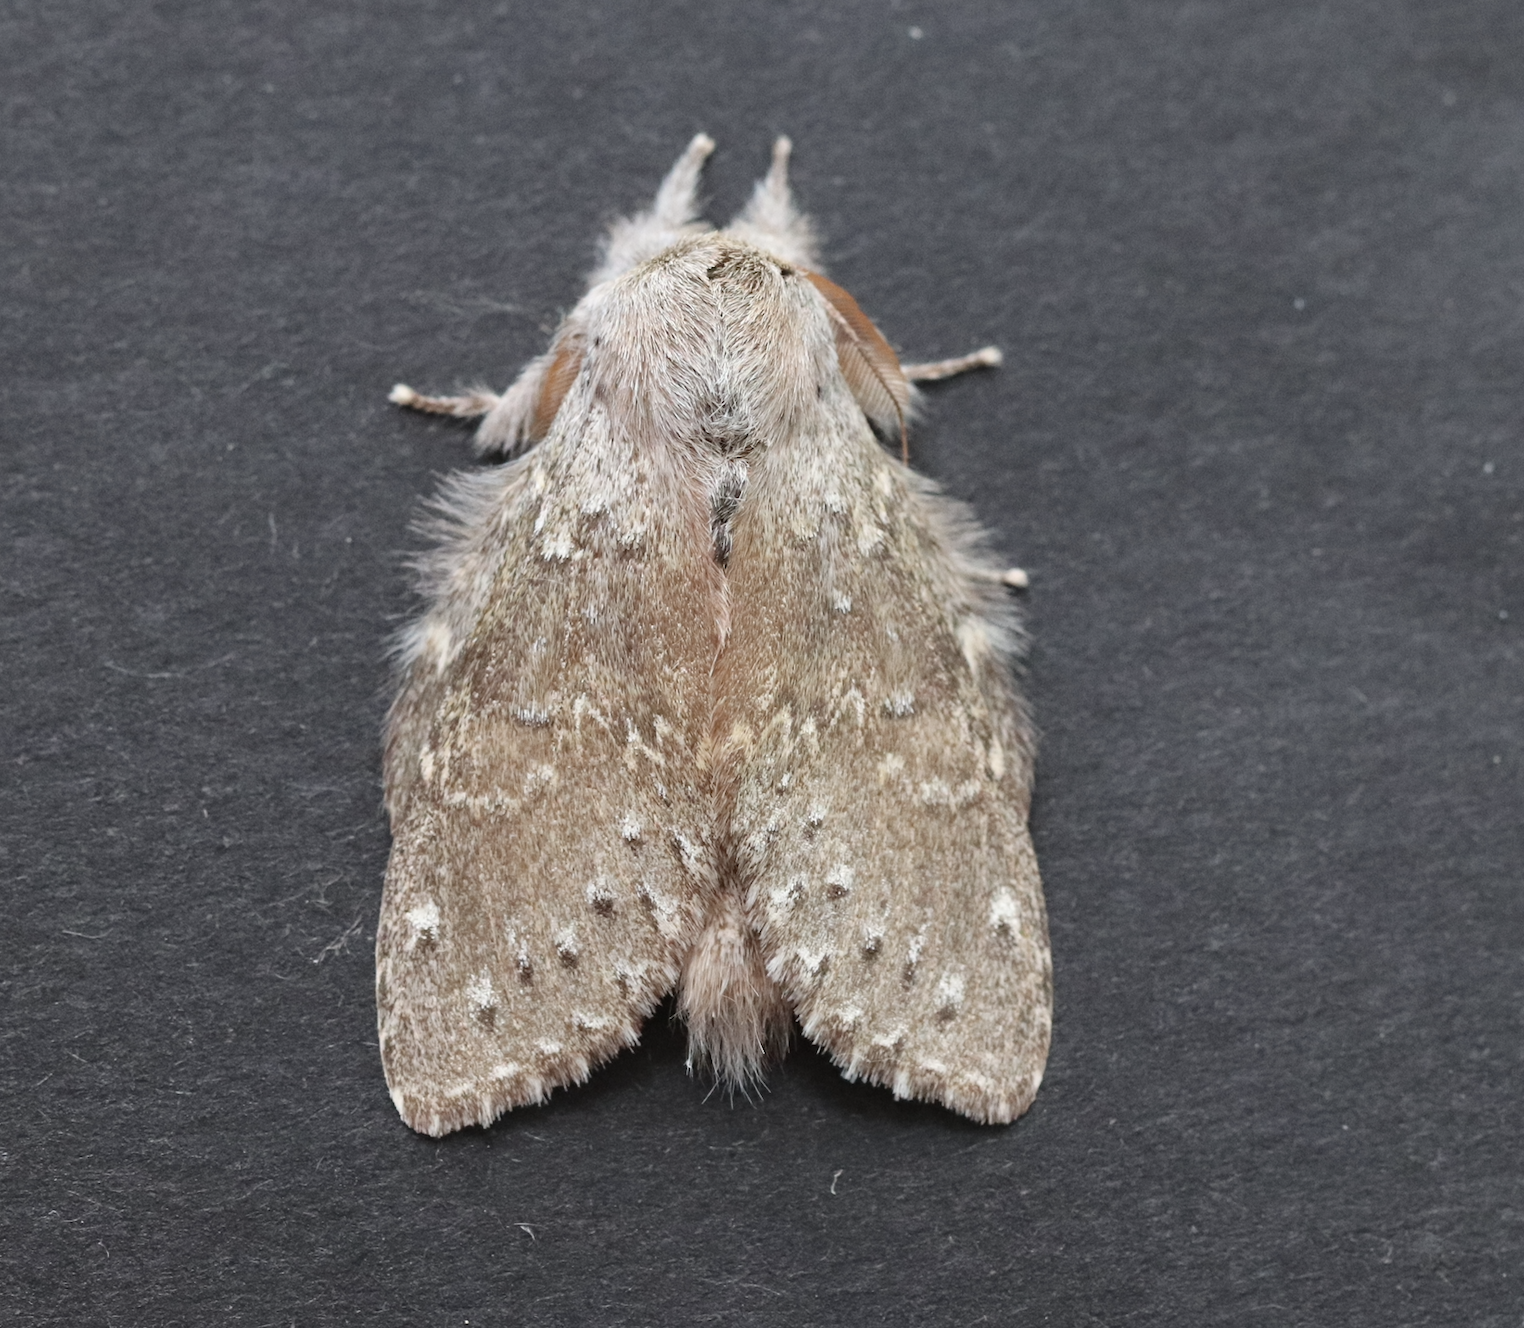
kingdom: Animalia
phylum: Arthropoda
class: Insecta
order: Lepidoptera
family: Notodontidae
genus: Stauropus
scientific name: Stauropus fagi
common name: Lobster moth
